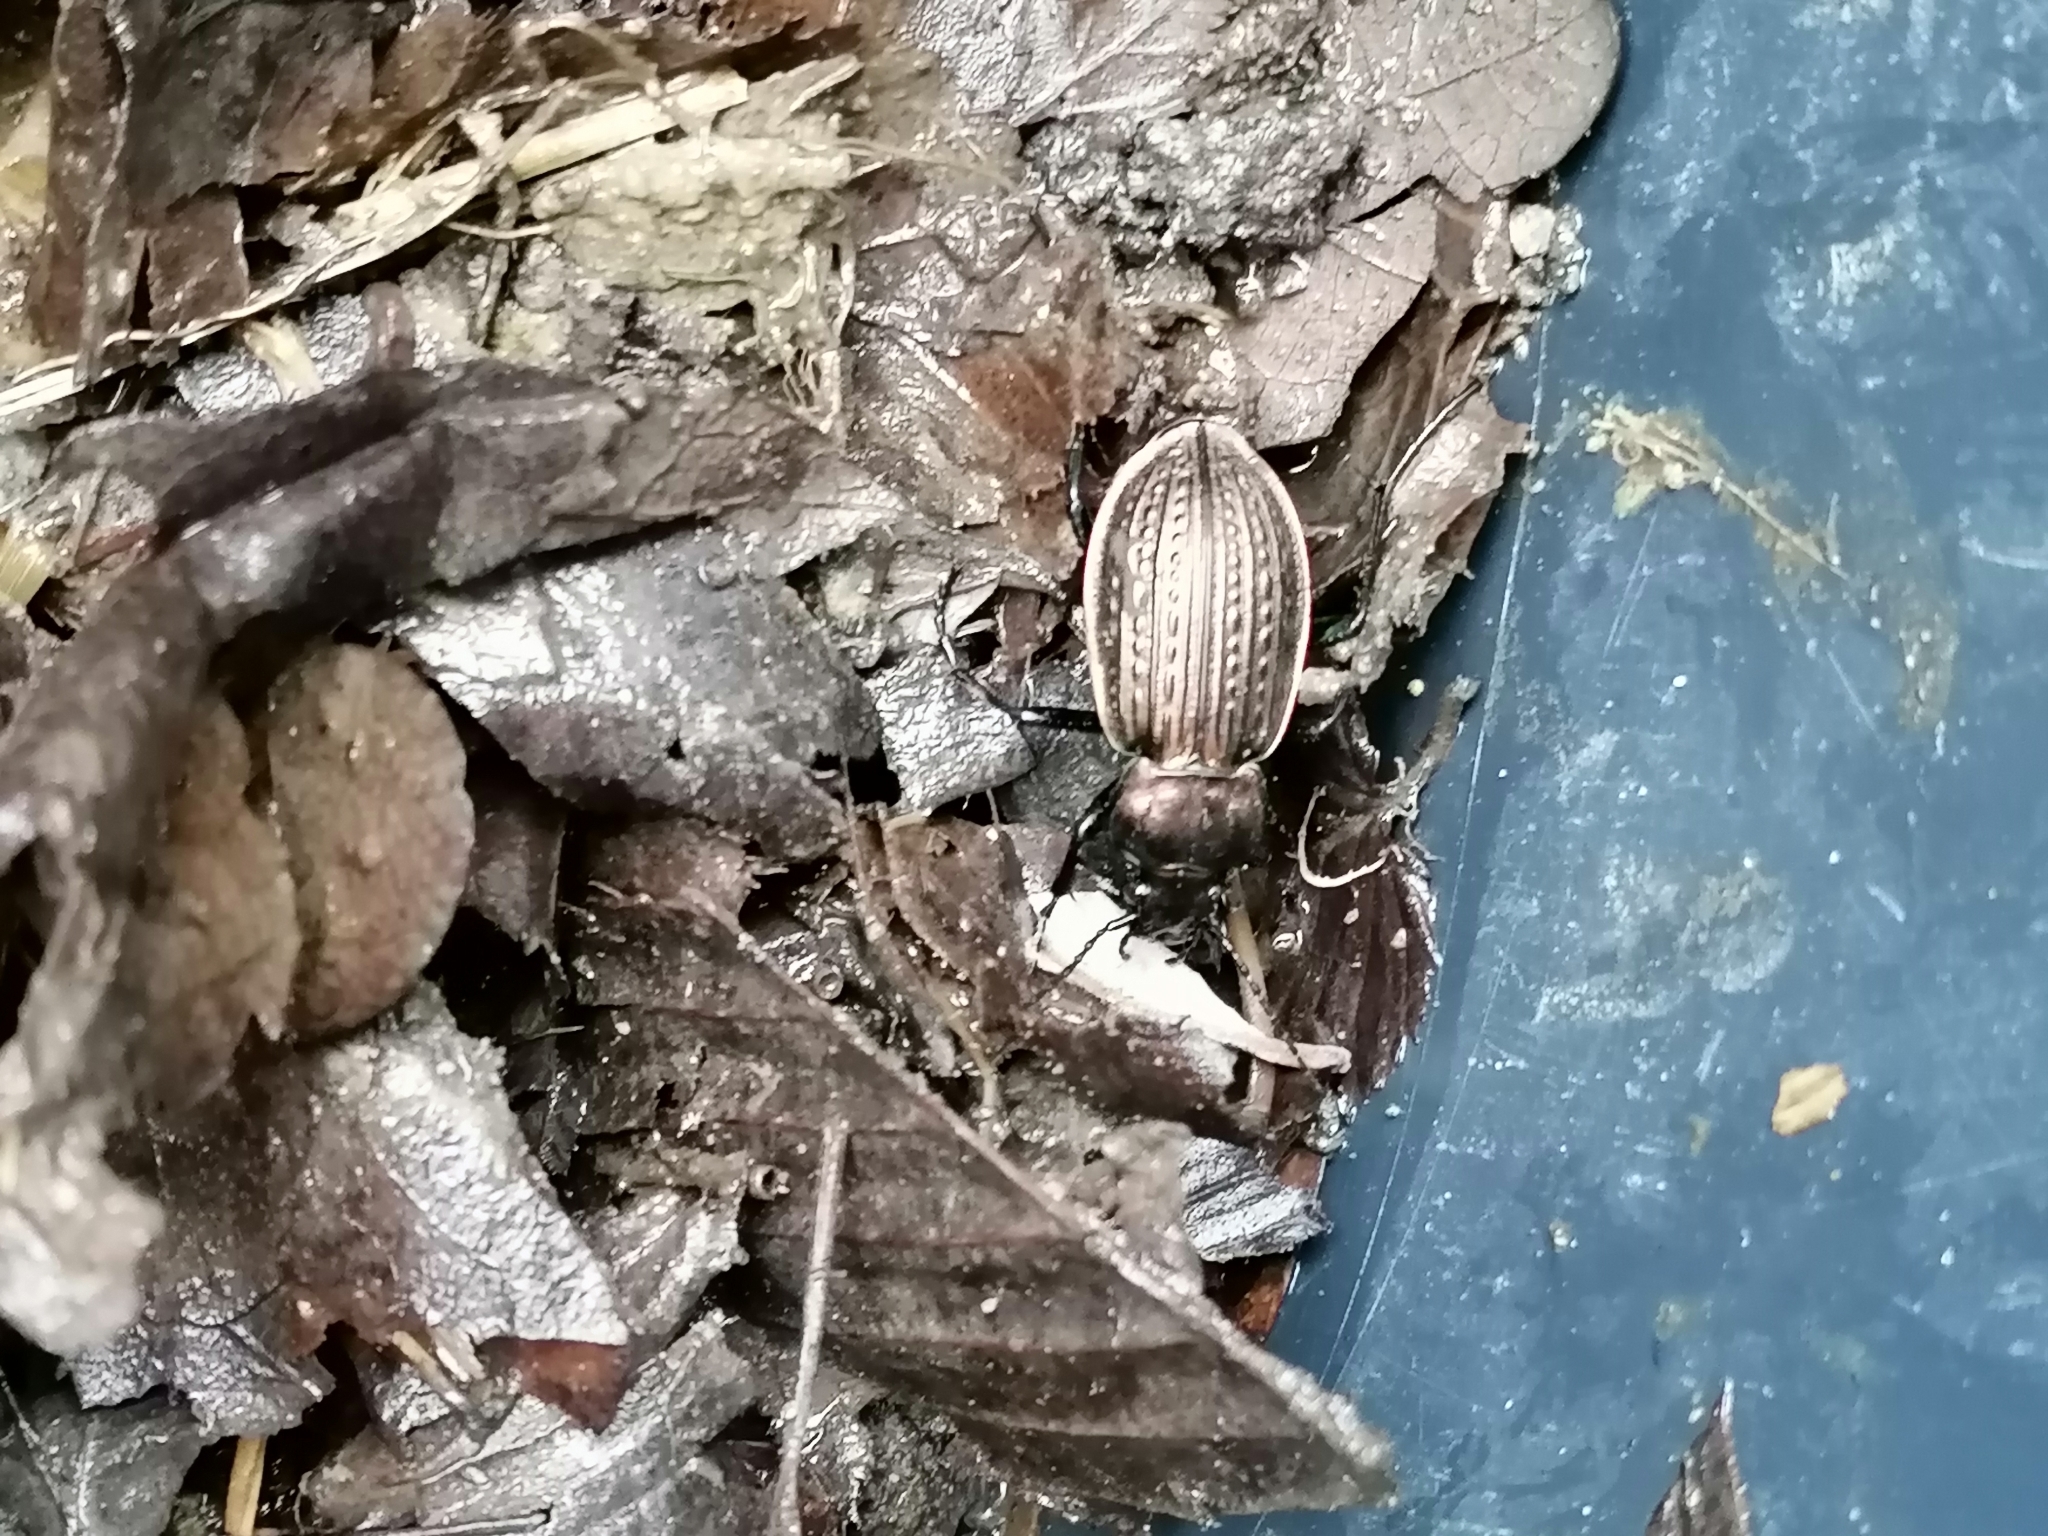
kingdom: Animalia
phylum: Arthropoda
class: Insecta
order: Coleoptera
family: Carabidae
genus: Carabus
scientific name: Carabus ulrichii
